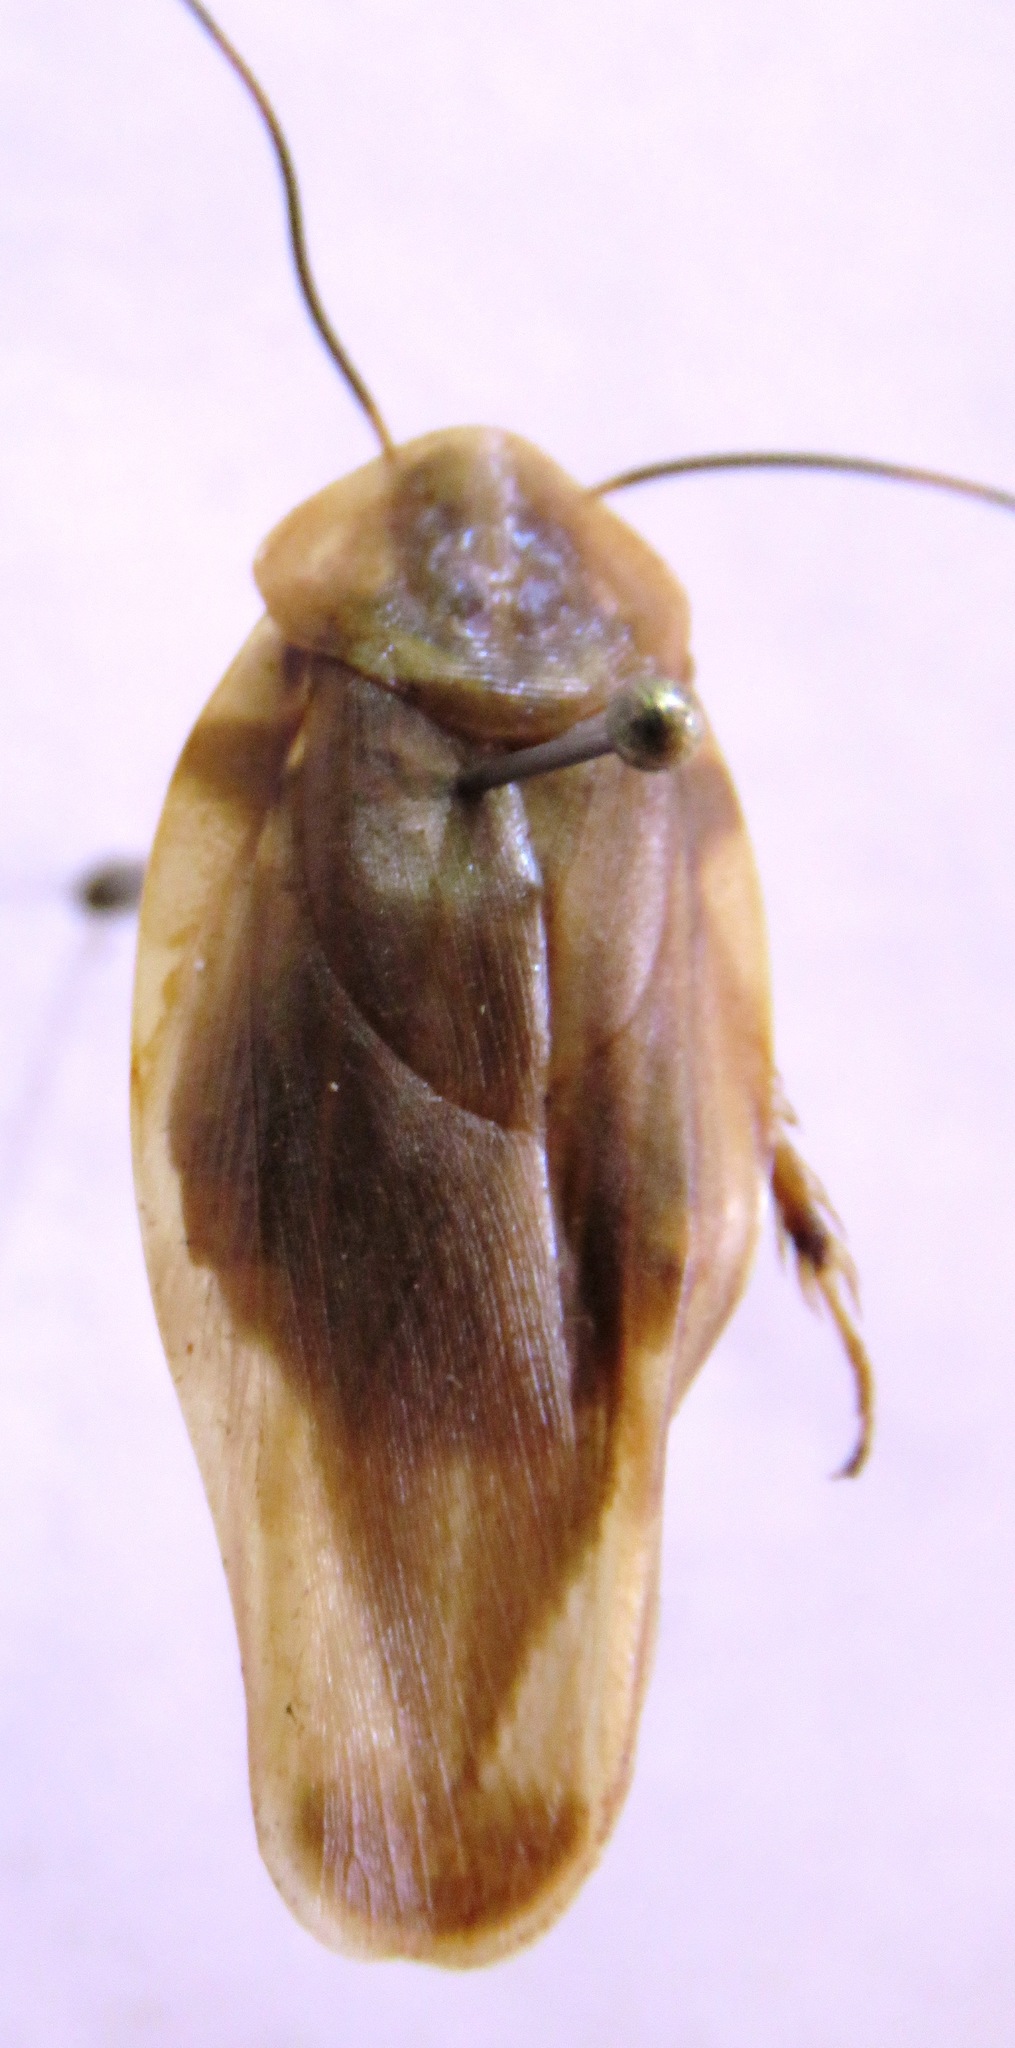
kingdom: Animalia
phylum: Arthropoda
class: Insecta
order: Blattodea
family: Blaberidae
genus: Achroblatta
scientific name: Achroblatta luteola
